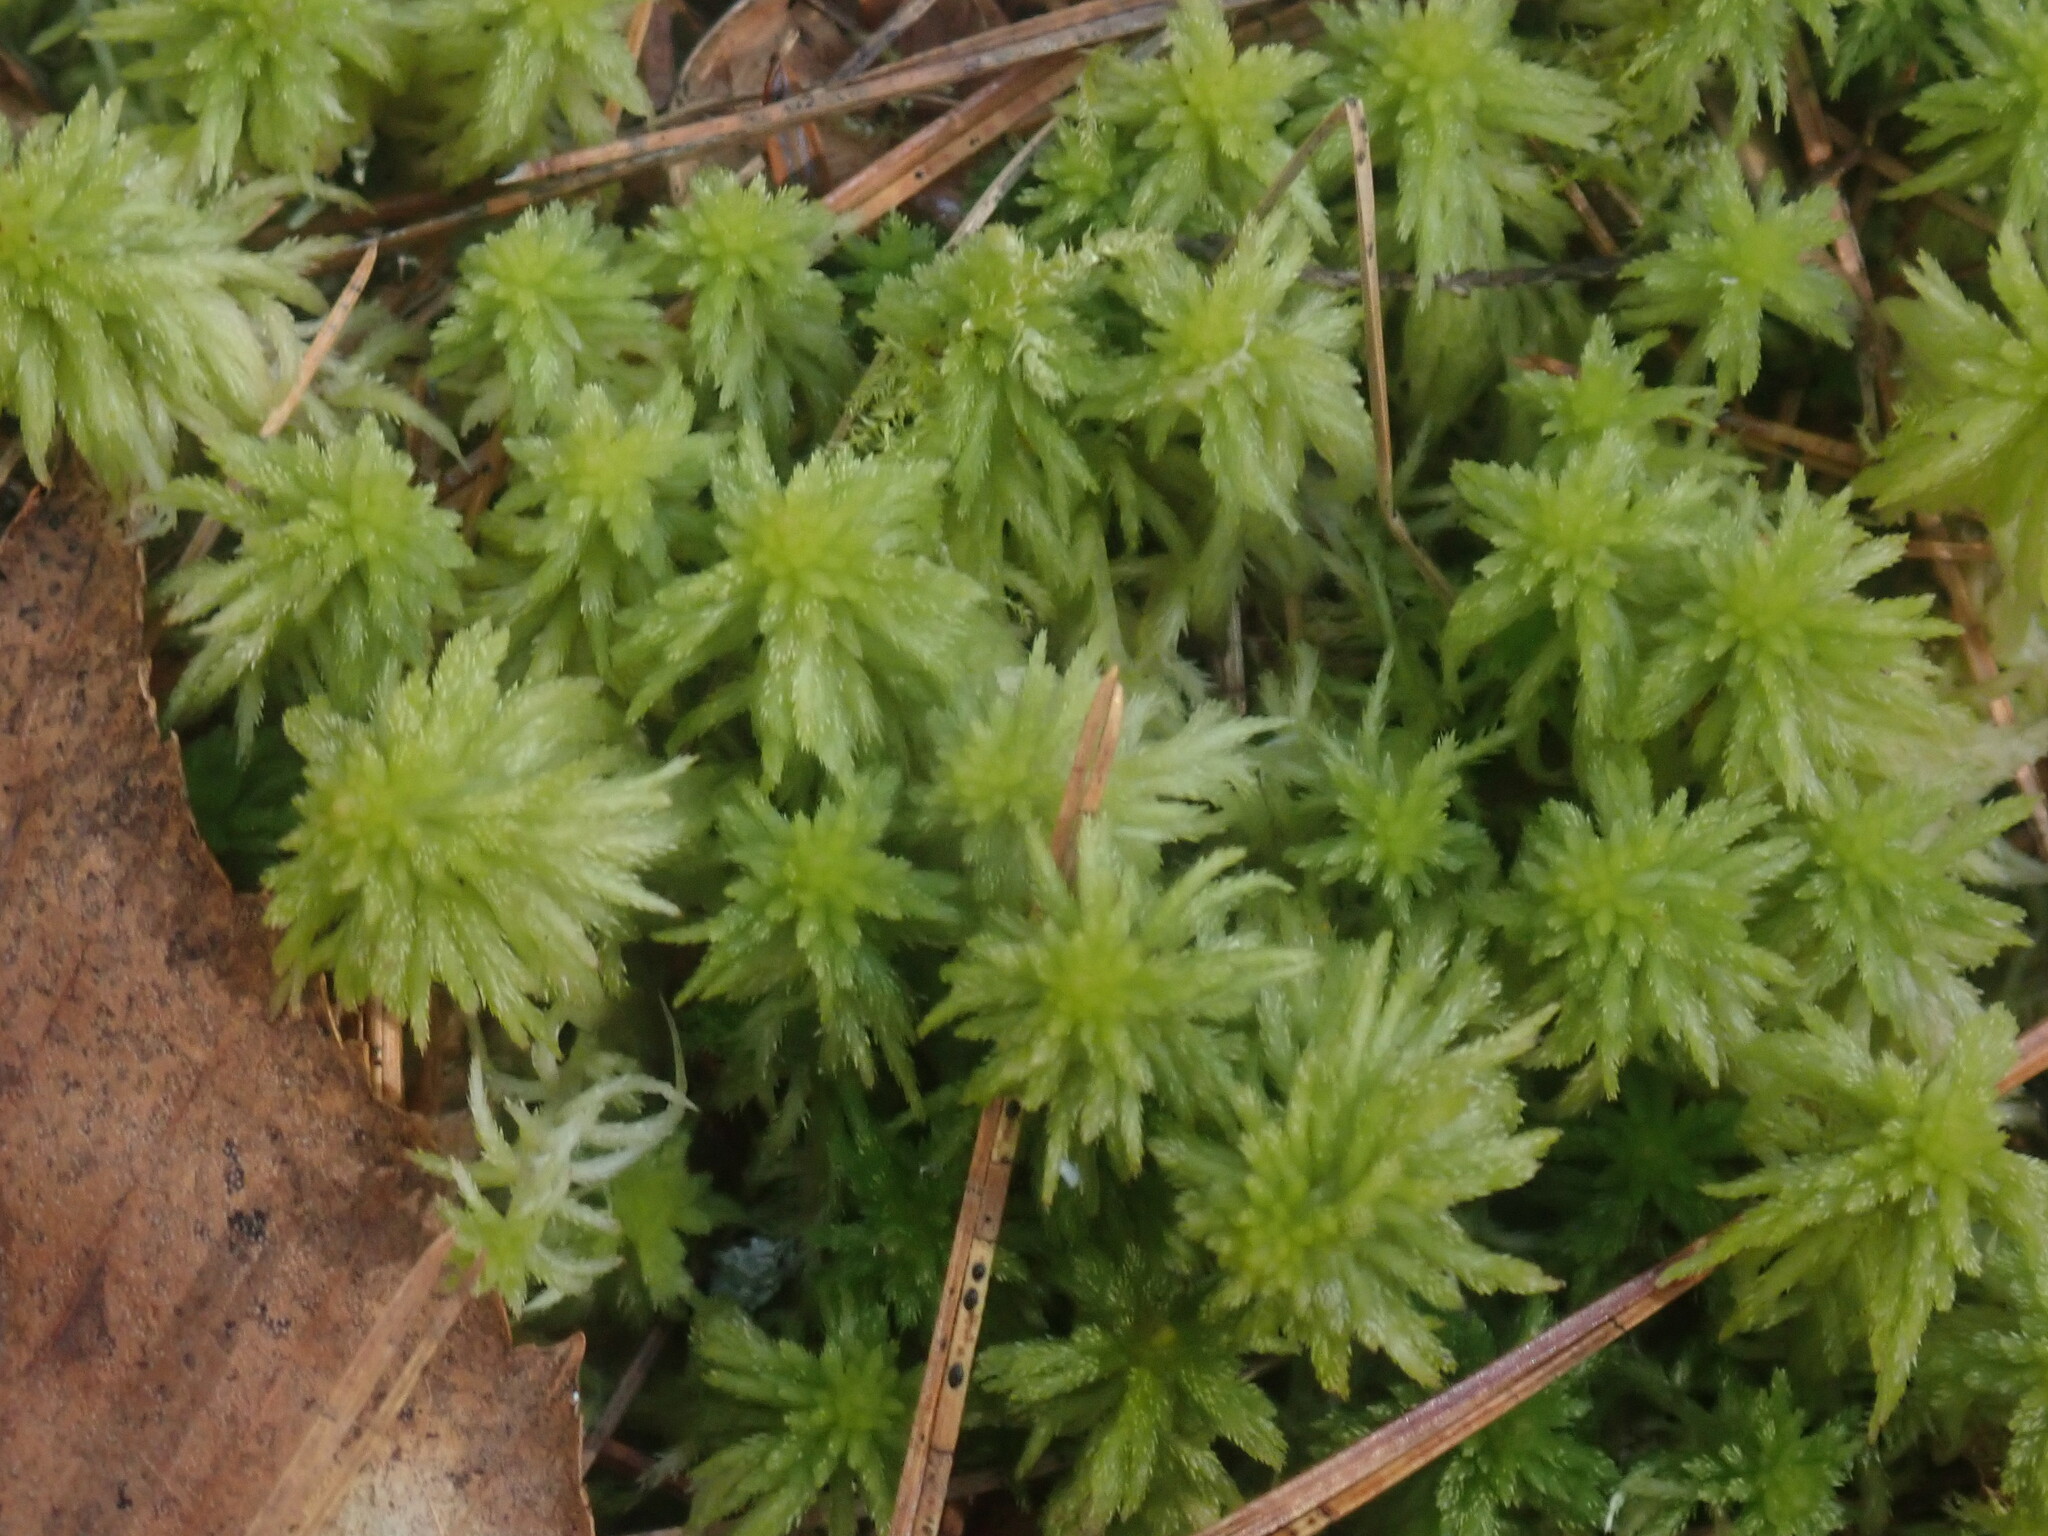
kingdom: Plantae
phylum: Bryophyta
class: Sphagnopsida
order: Sphagnales
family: Sphagnaceae
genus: Sphagnum
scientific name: Sphagnum
